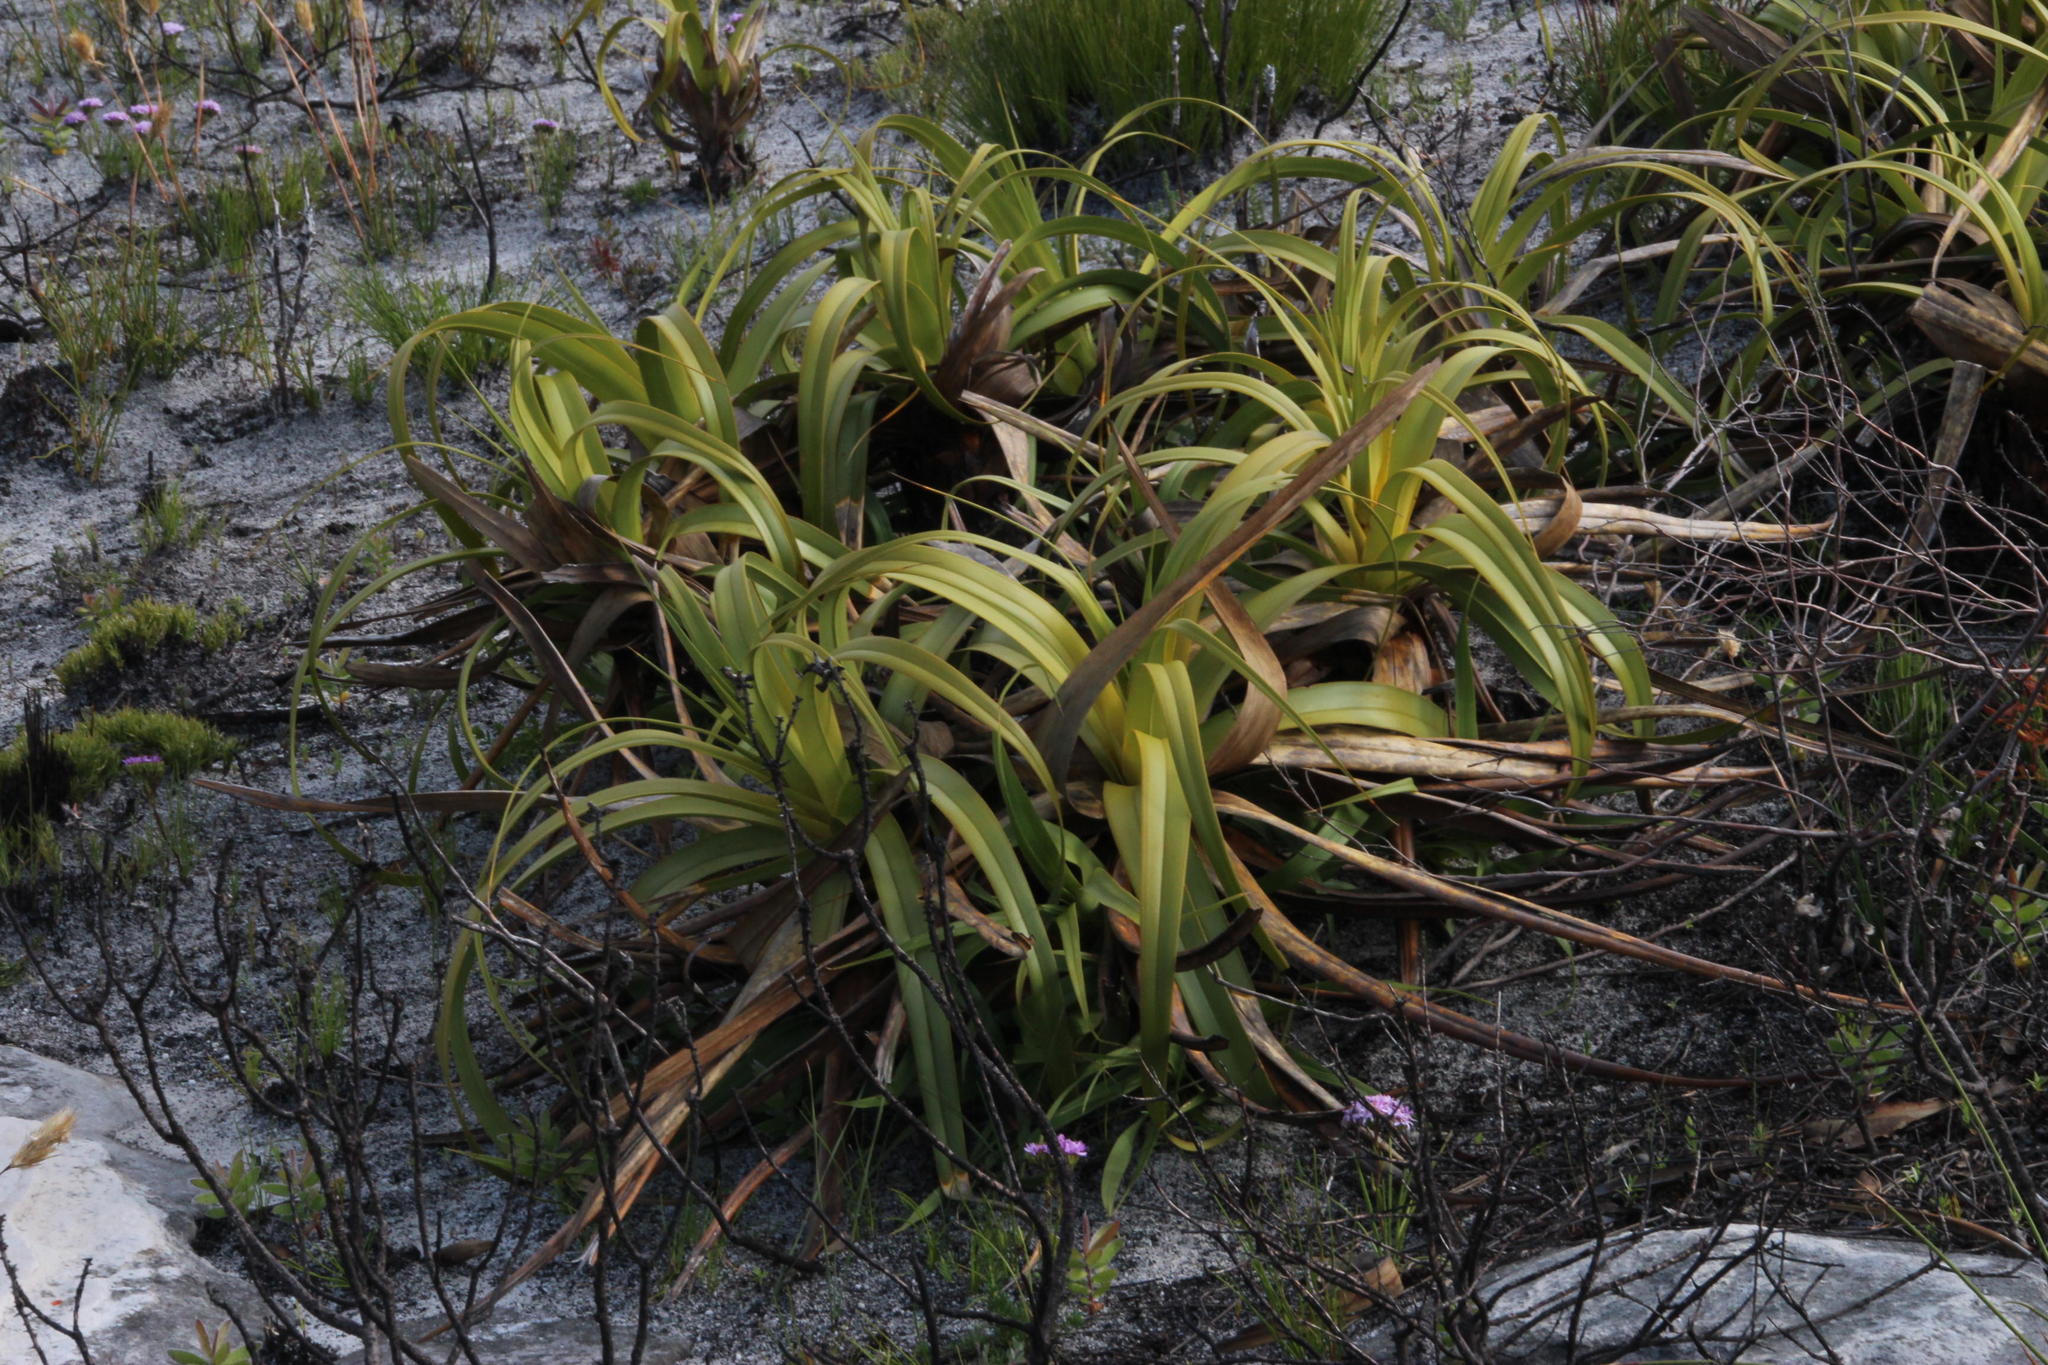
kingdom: Plantae
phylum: Tracheophyta
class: Liliopsida
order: Poales
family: Cyperaceae
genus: Tetraria
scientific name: Tetraria thermalis
